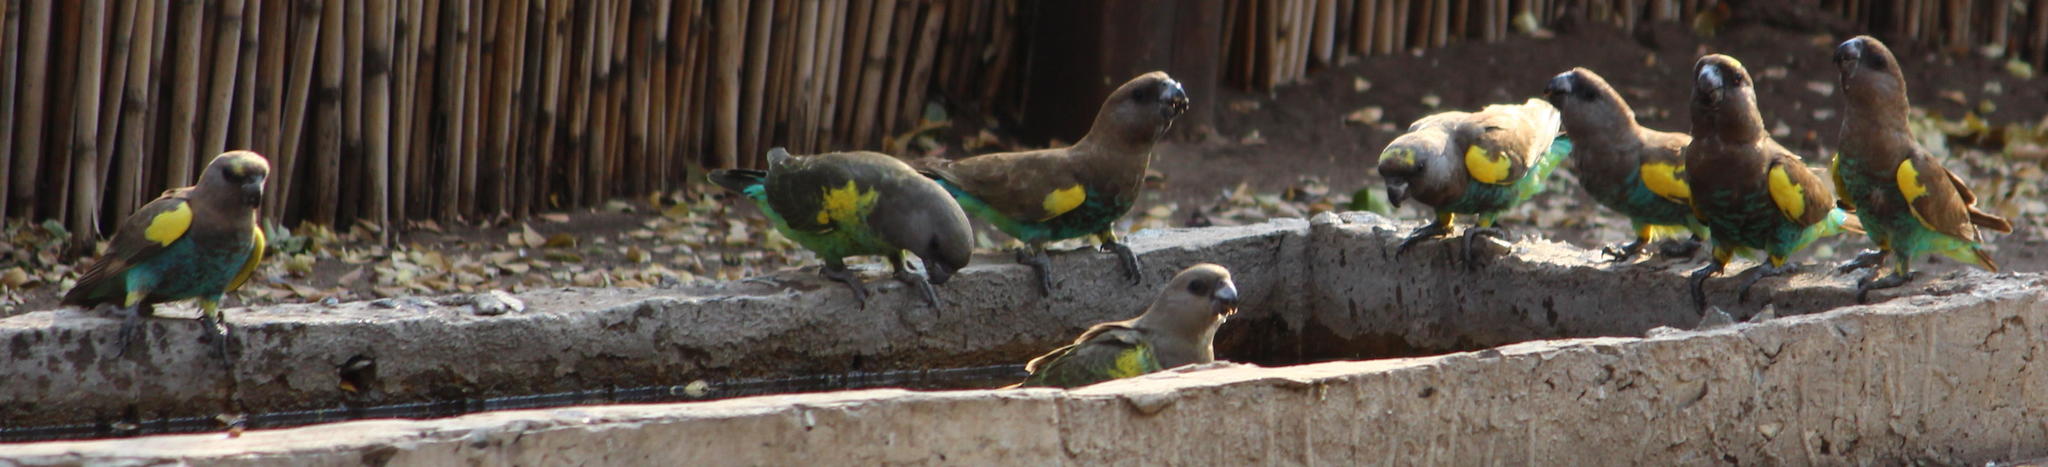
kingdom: Animalia
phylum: Chordata
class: Aves
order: Psittaciformes
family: Psittacidae
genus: Poicephalus
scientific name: Poicephalus meyeri
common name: Meyer's parrot
